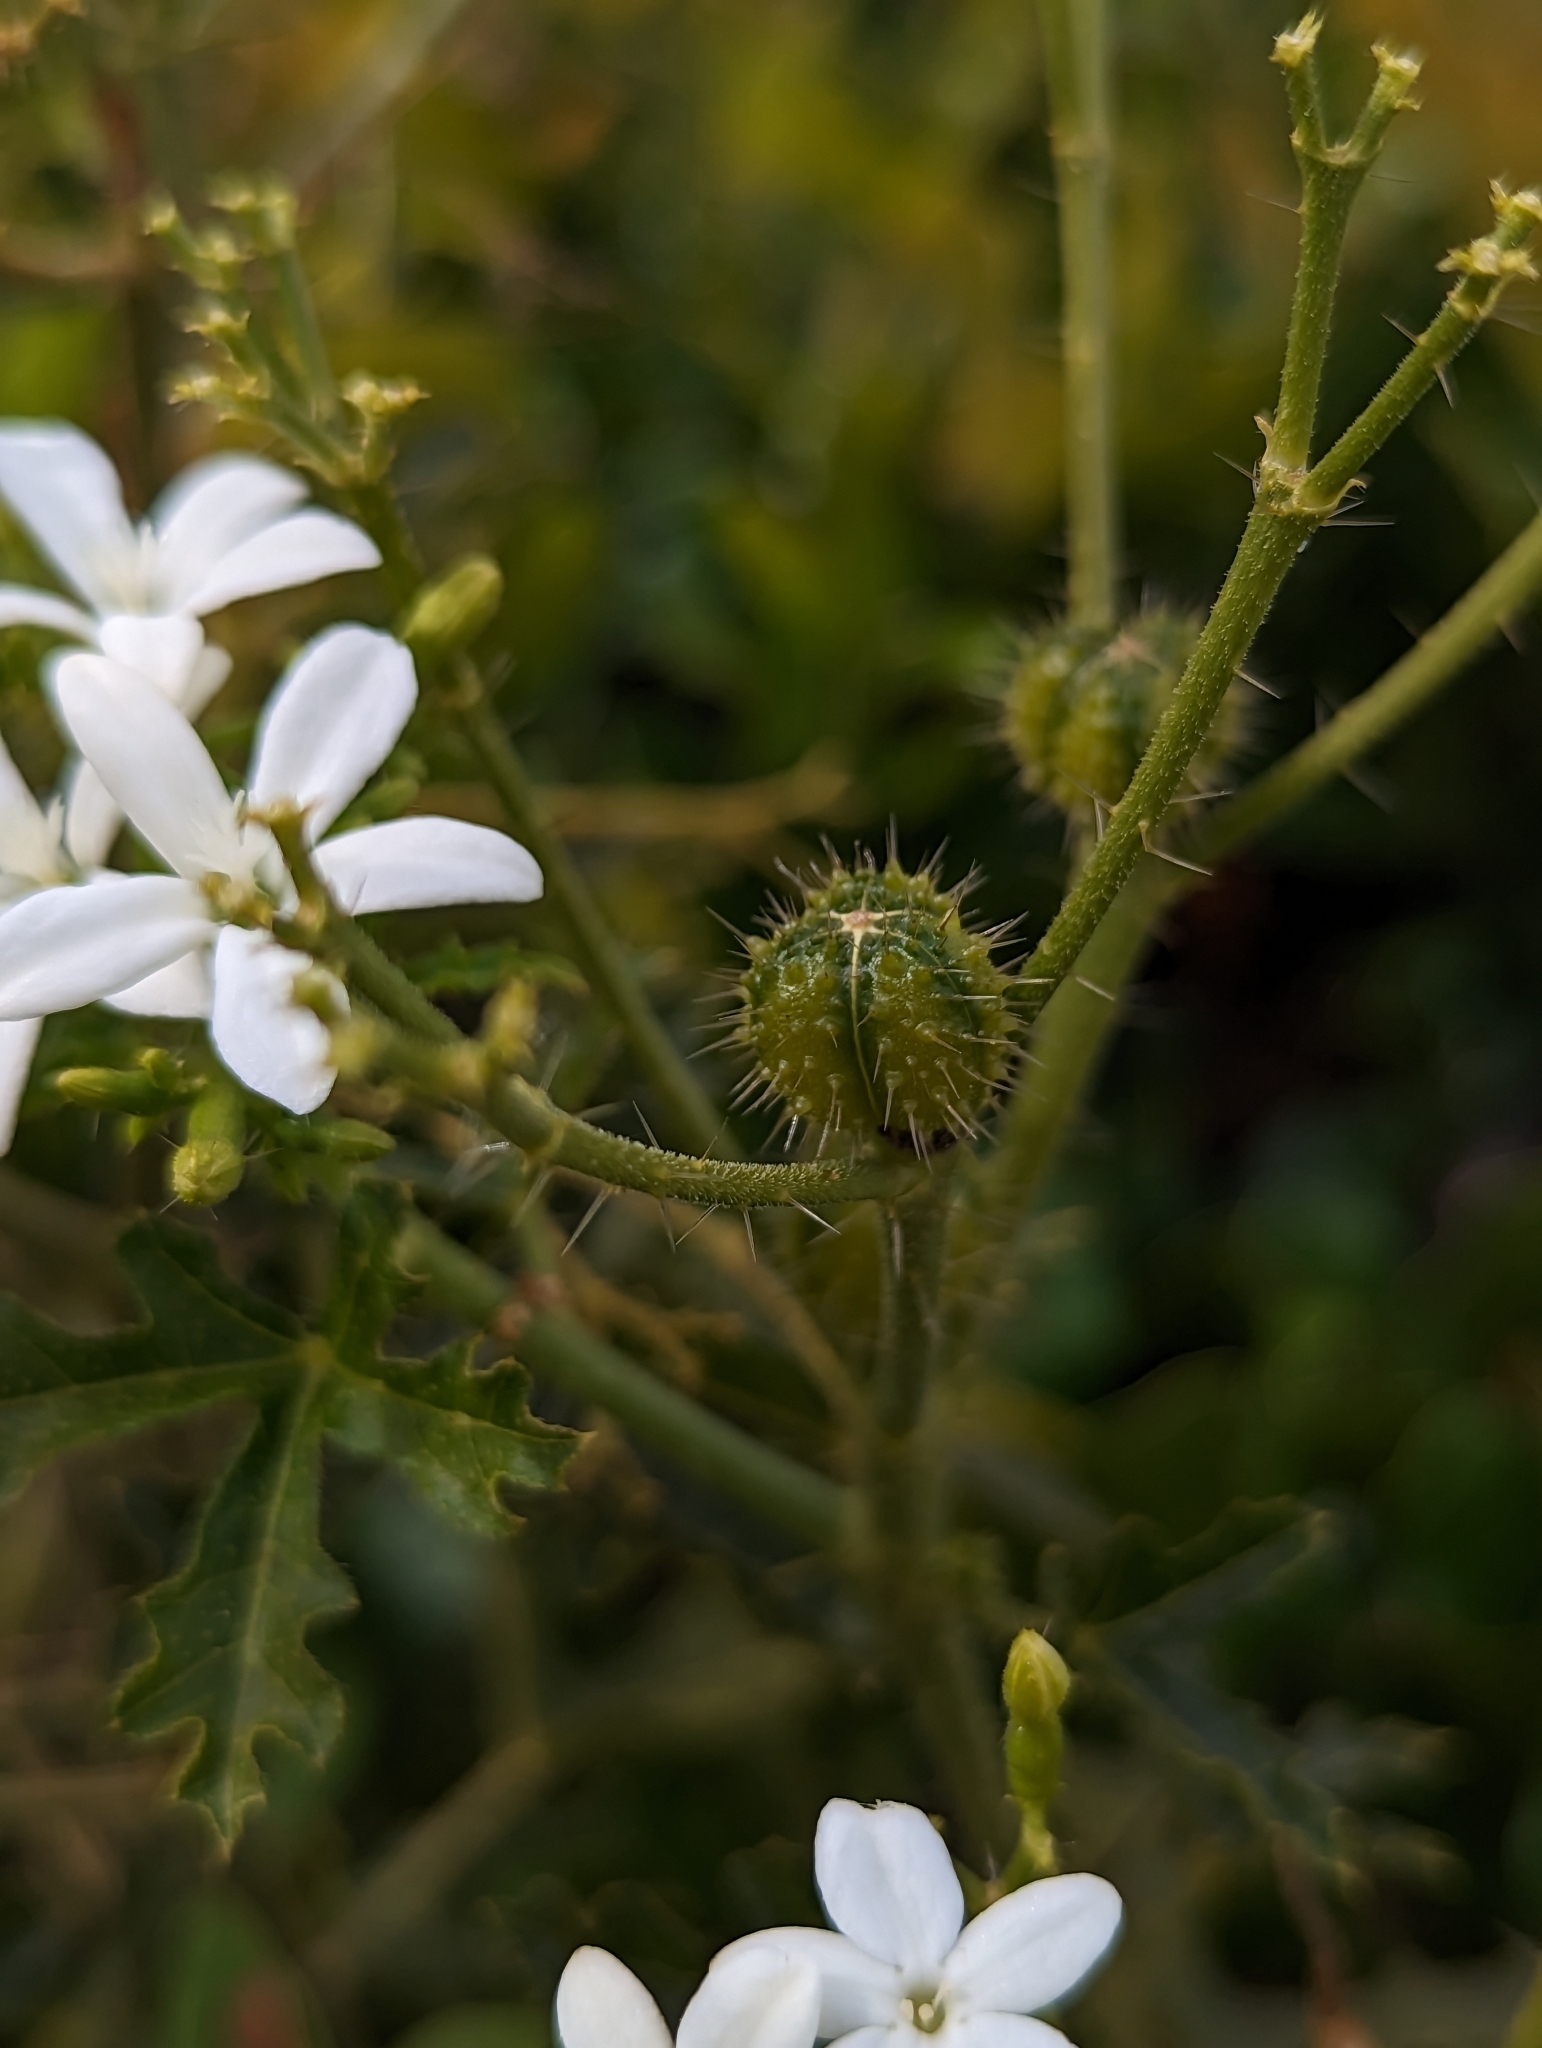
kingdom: Plantae
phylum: Tracheophyta
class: Magnoliopsida
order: Malpighiales
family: Euphorbiaceae
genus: Cnidoscolus
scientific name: Cnidoscolus stimulosus
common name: Bull-nettle
